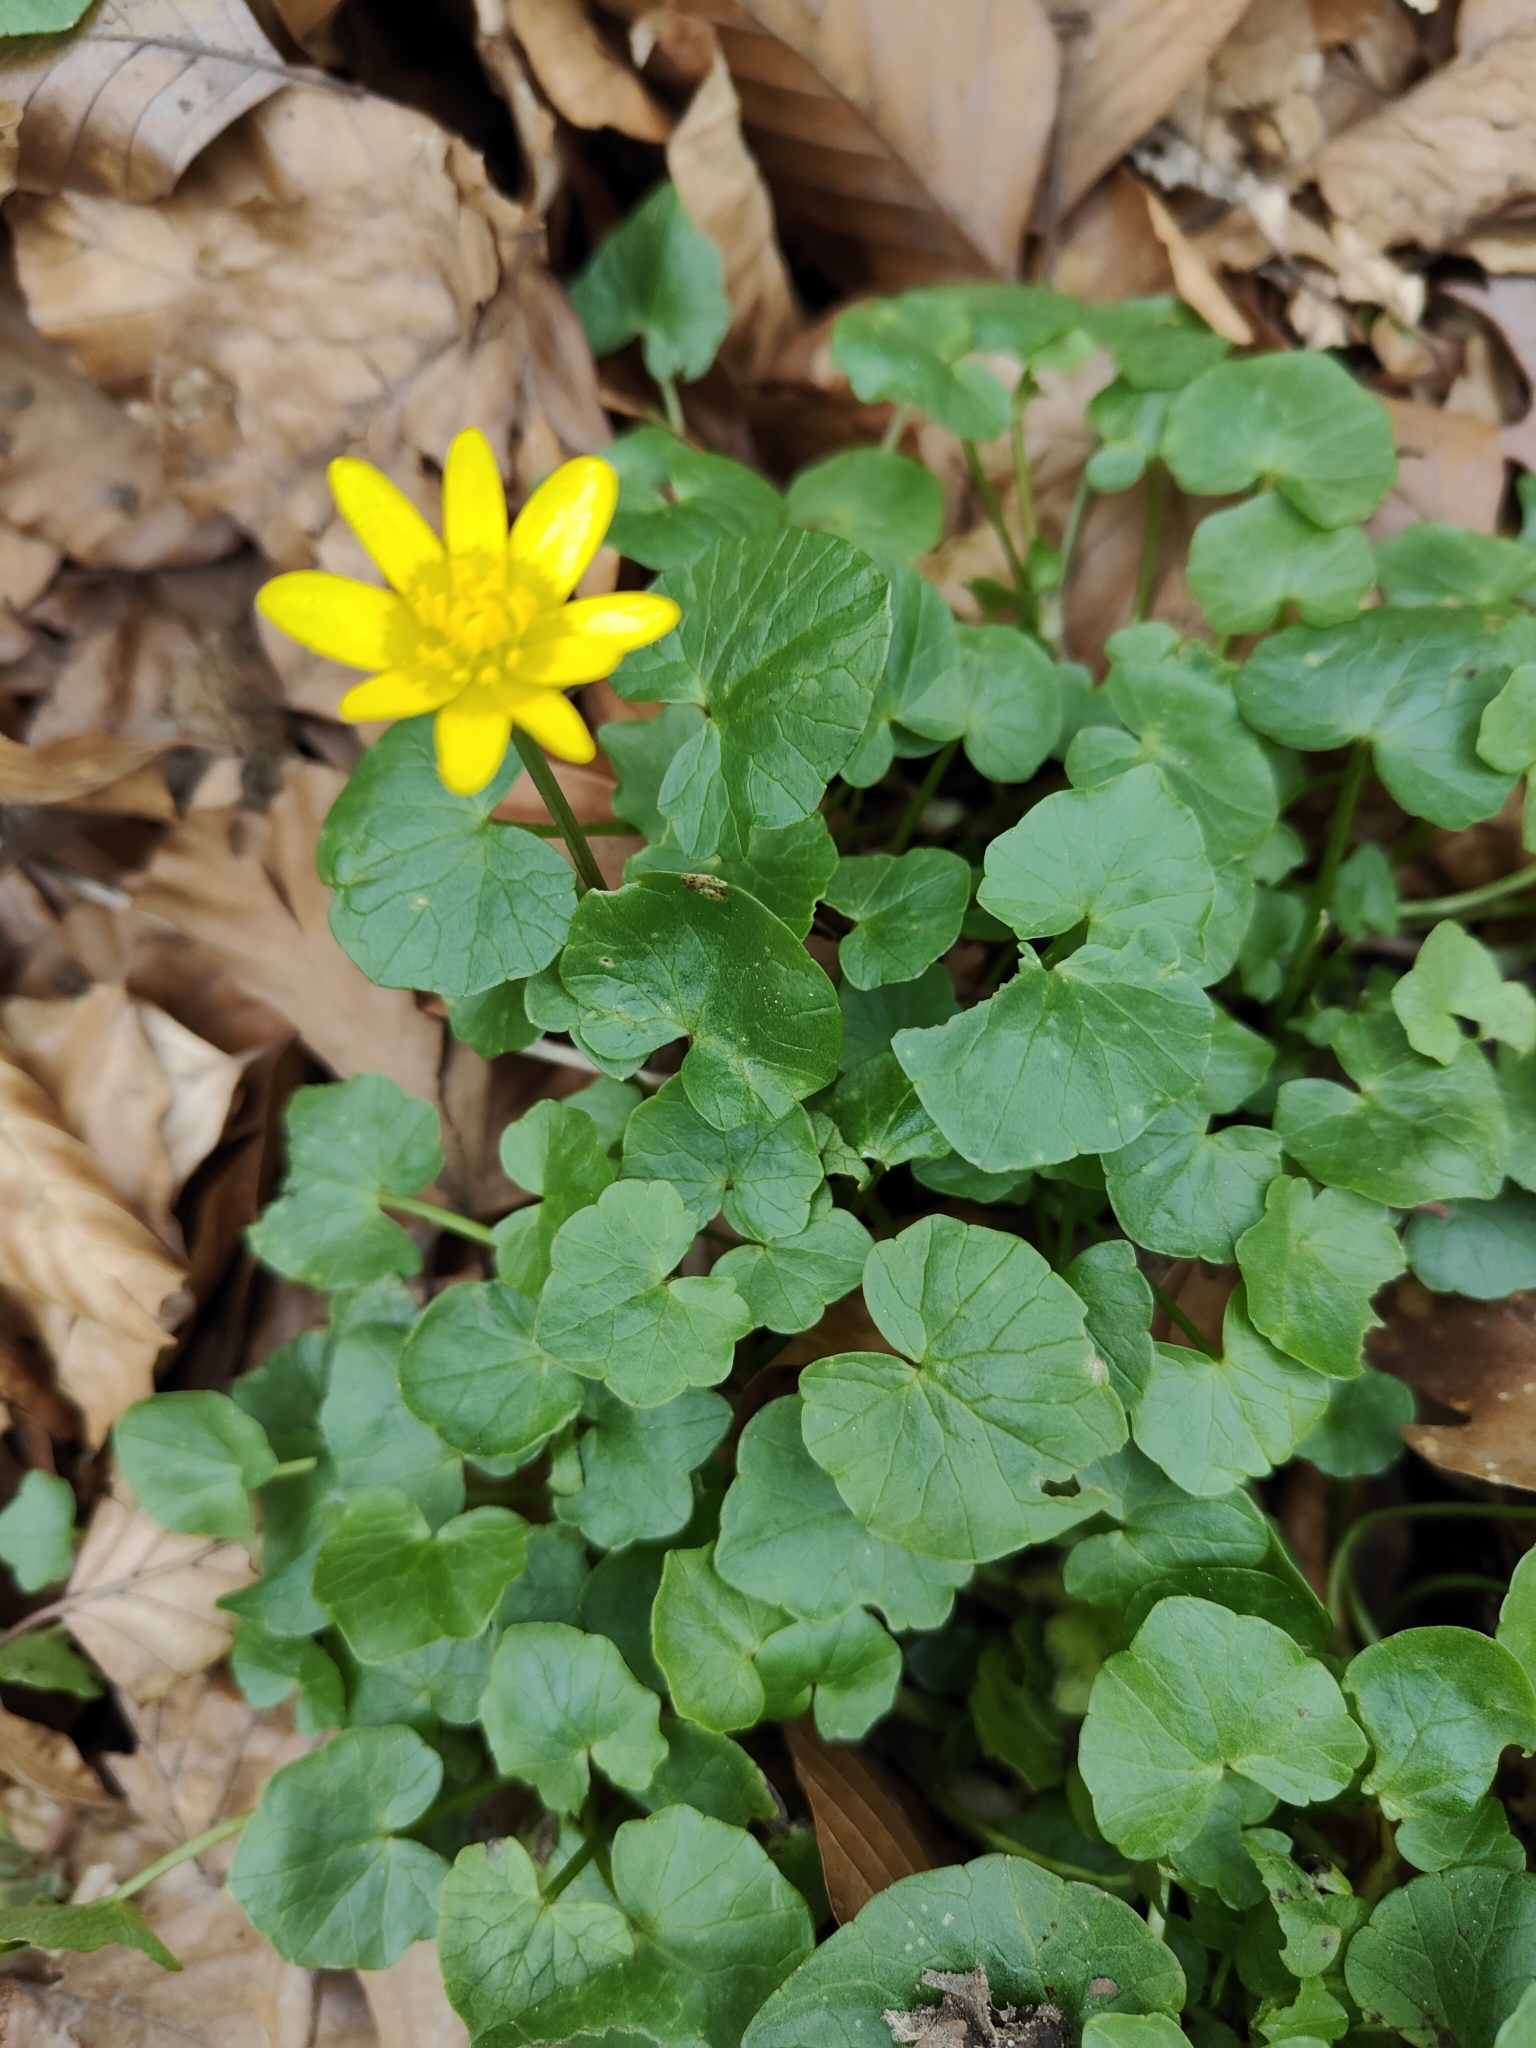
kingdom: Plantae
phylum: Tracheophyta
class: Magnoliopsida
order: Ranunculales
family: Ranunculaceae
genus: Ficaria
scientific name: Ficaria verna
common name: Lesser celandine
